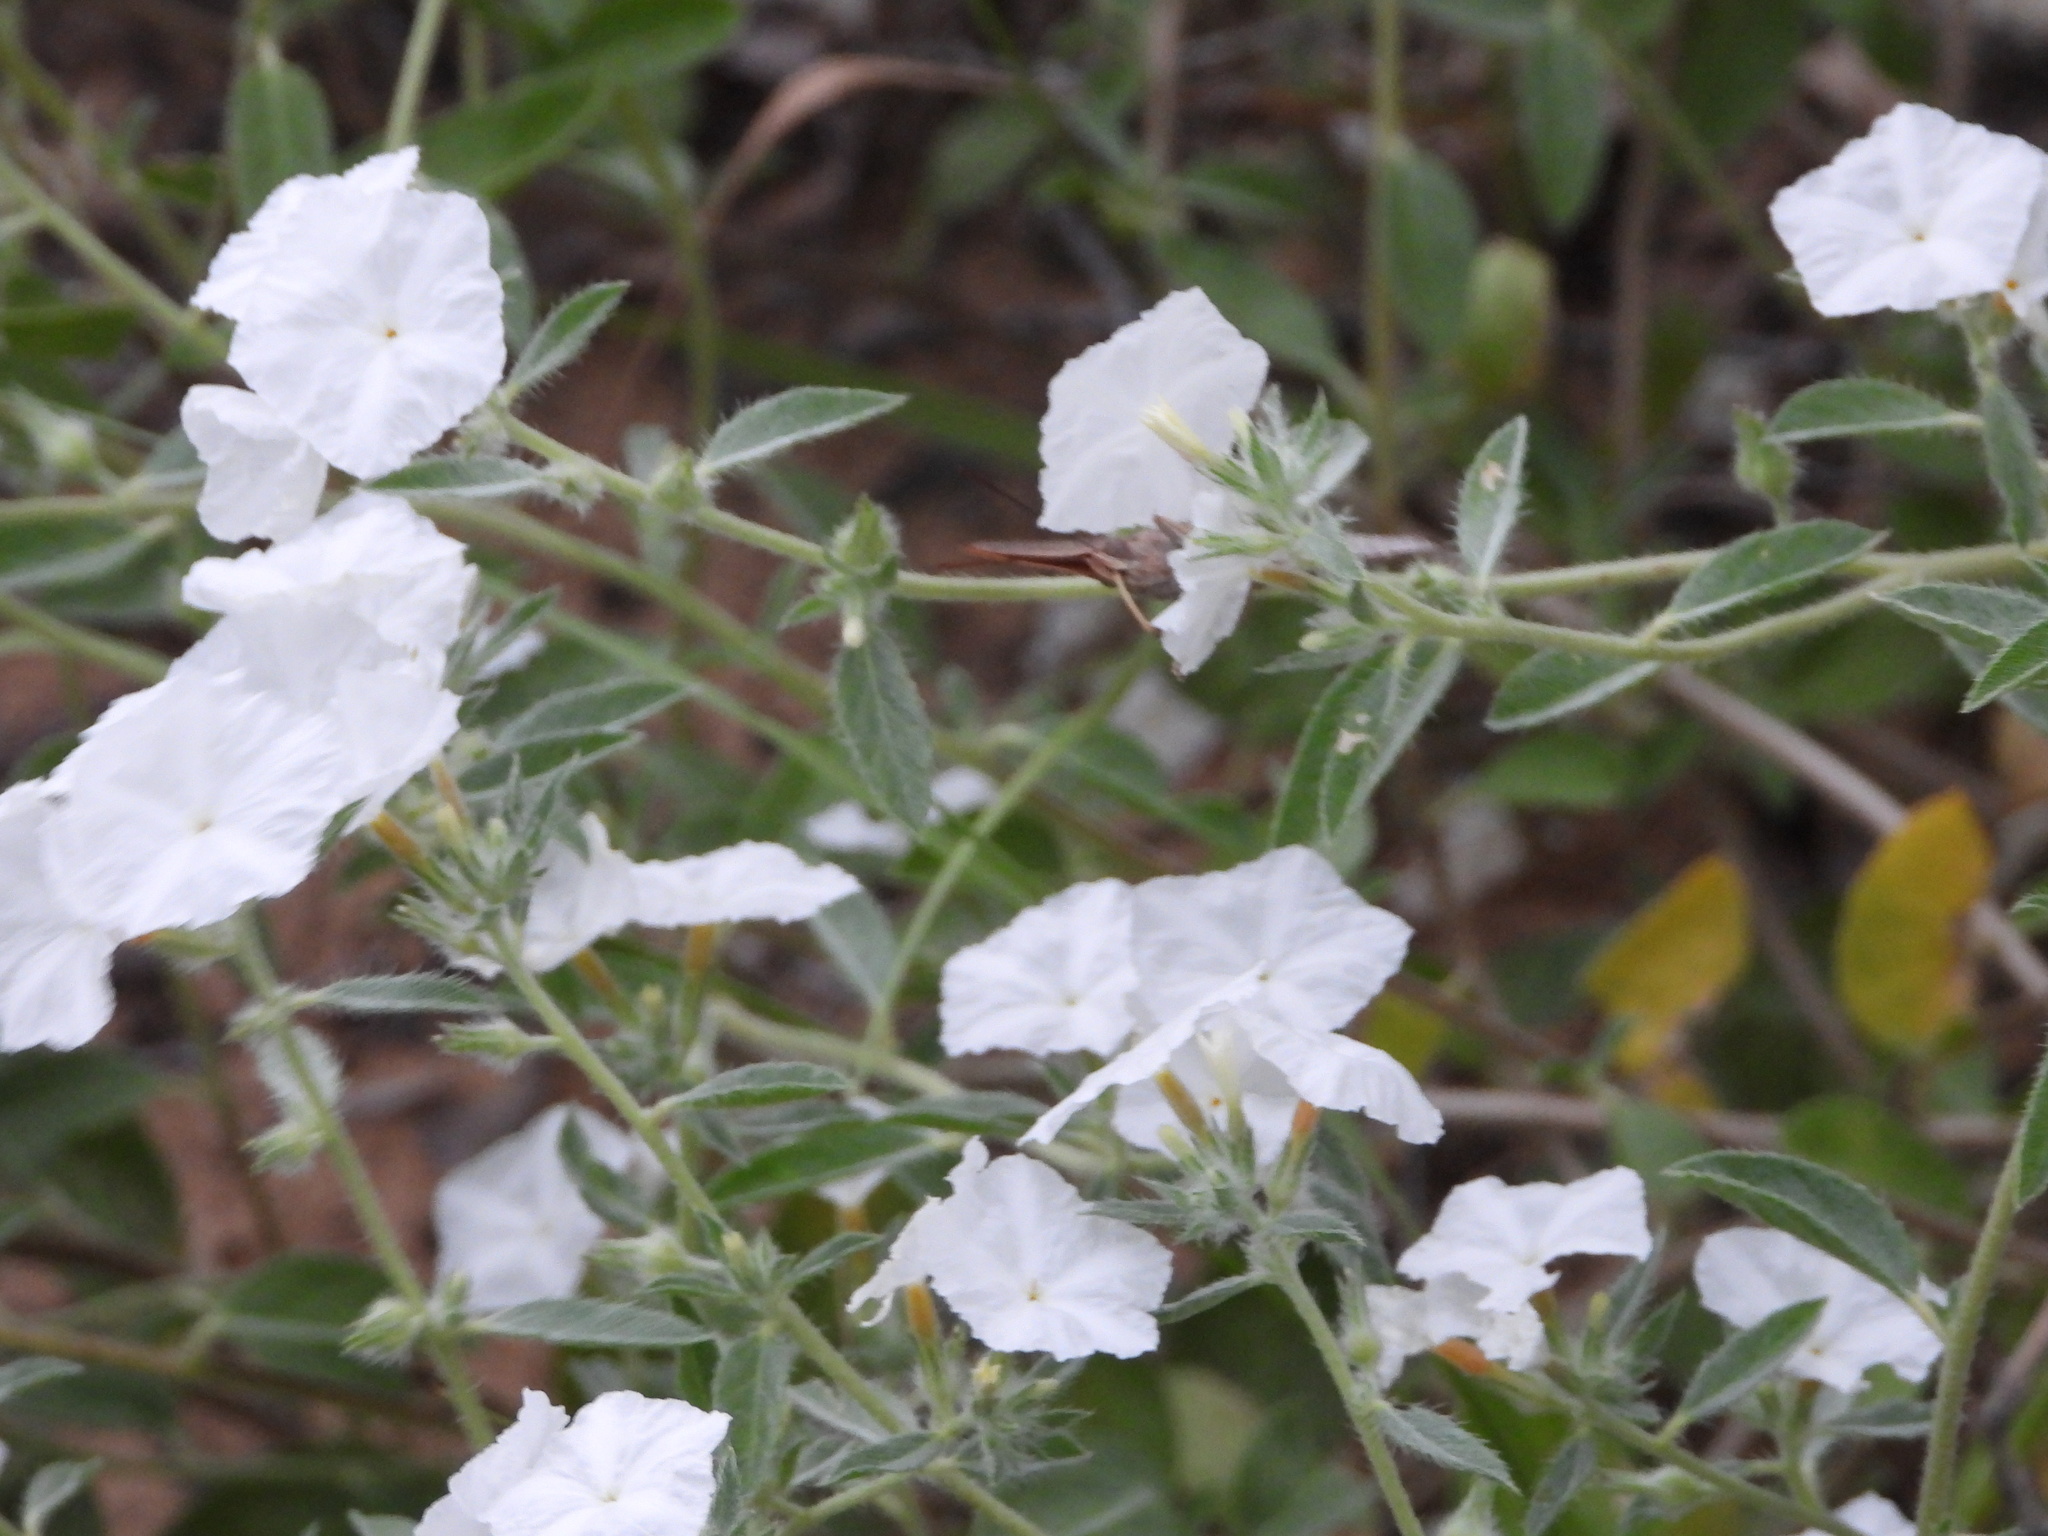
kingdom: Animalia
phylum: Arthropoda
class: Insecta
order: Lepidoptera
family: Nymphalidae
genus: Anaea
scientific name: Anaea andria
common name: Goatweed leafwing
